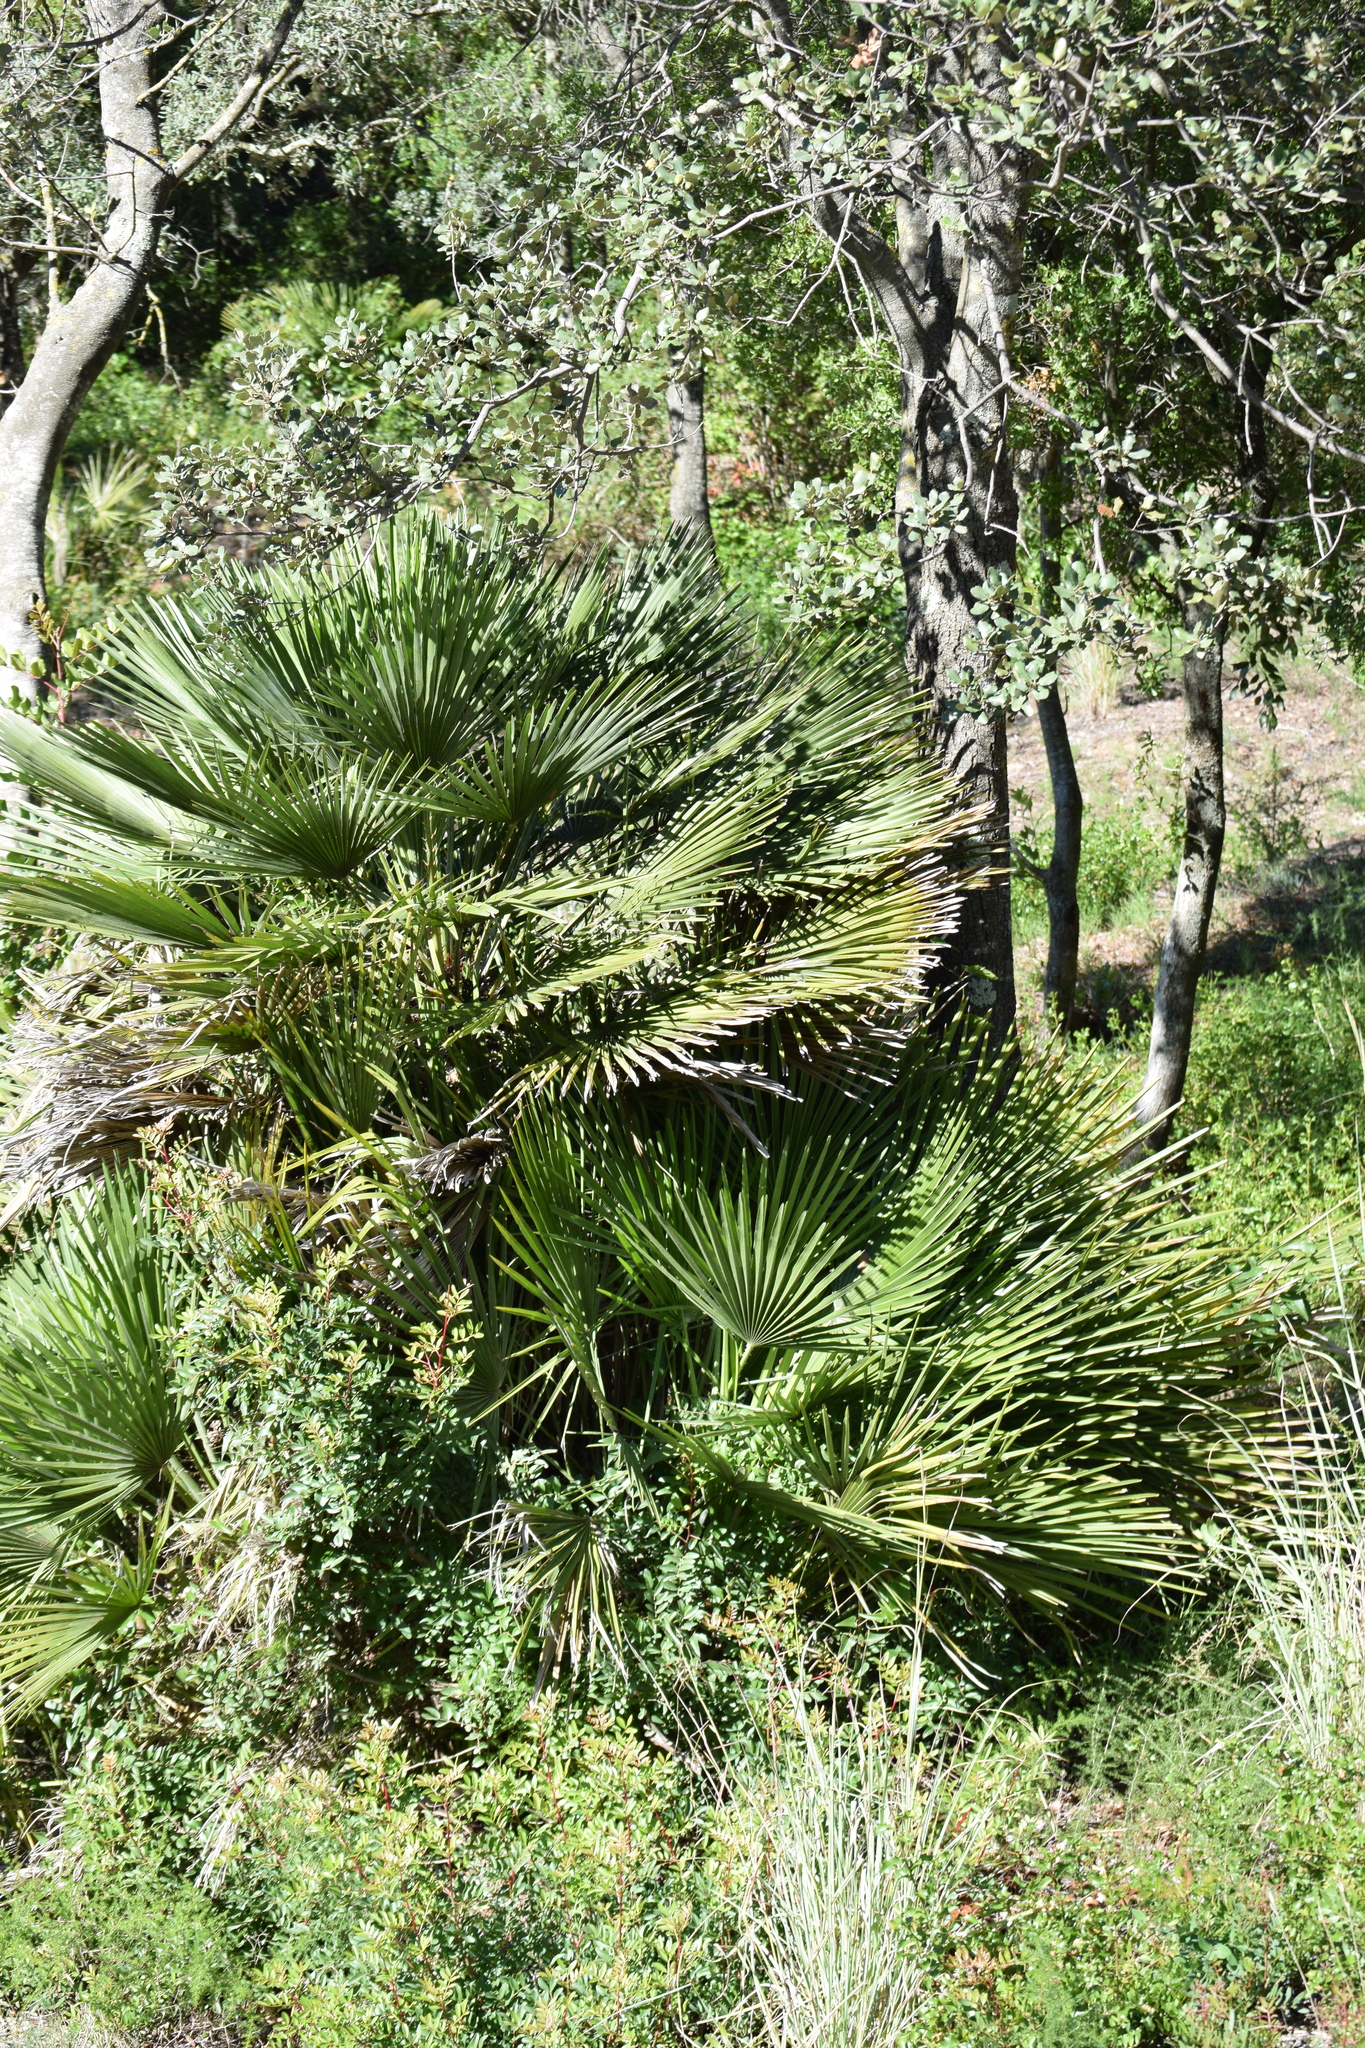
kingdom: Plantae
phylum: Tracheophyta
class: Liliopsida
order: Arecales
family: Arecaceae
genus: Chamaerops
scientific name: Chamaerops humilis
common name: Dwarf fan palm
